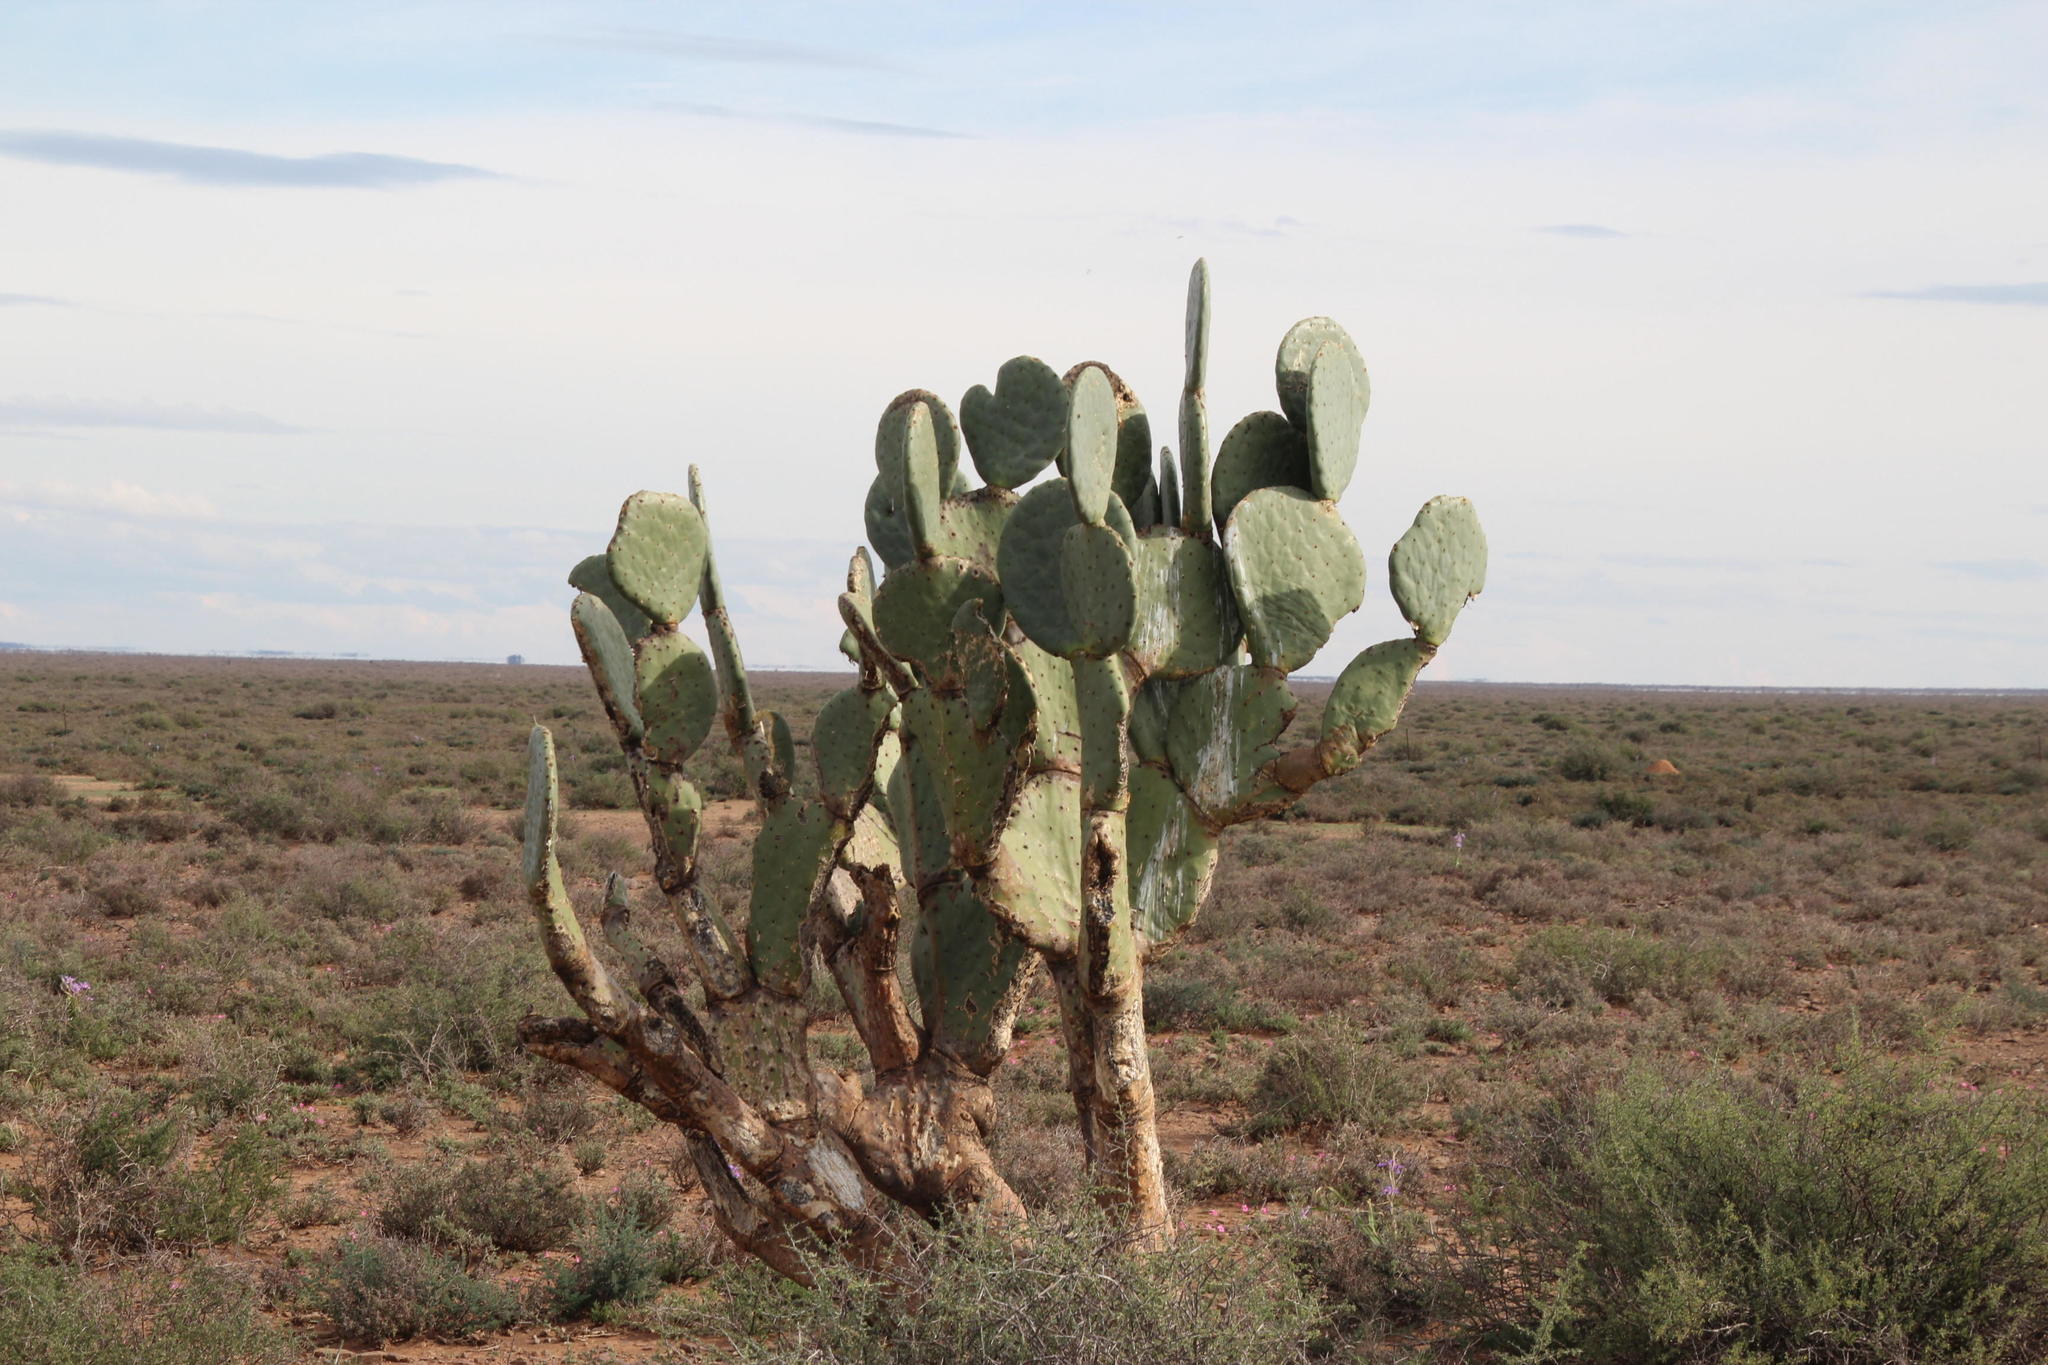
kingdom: Plantae
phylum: Tracheophyta
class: Magnoliopsida
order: Caryophyllales
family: Cactaceae
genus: Opuntia
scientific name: Opuntia robusta
